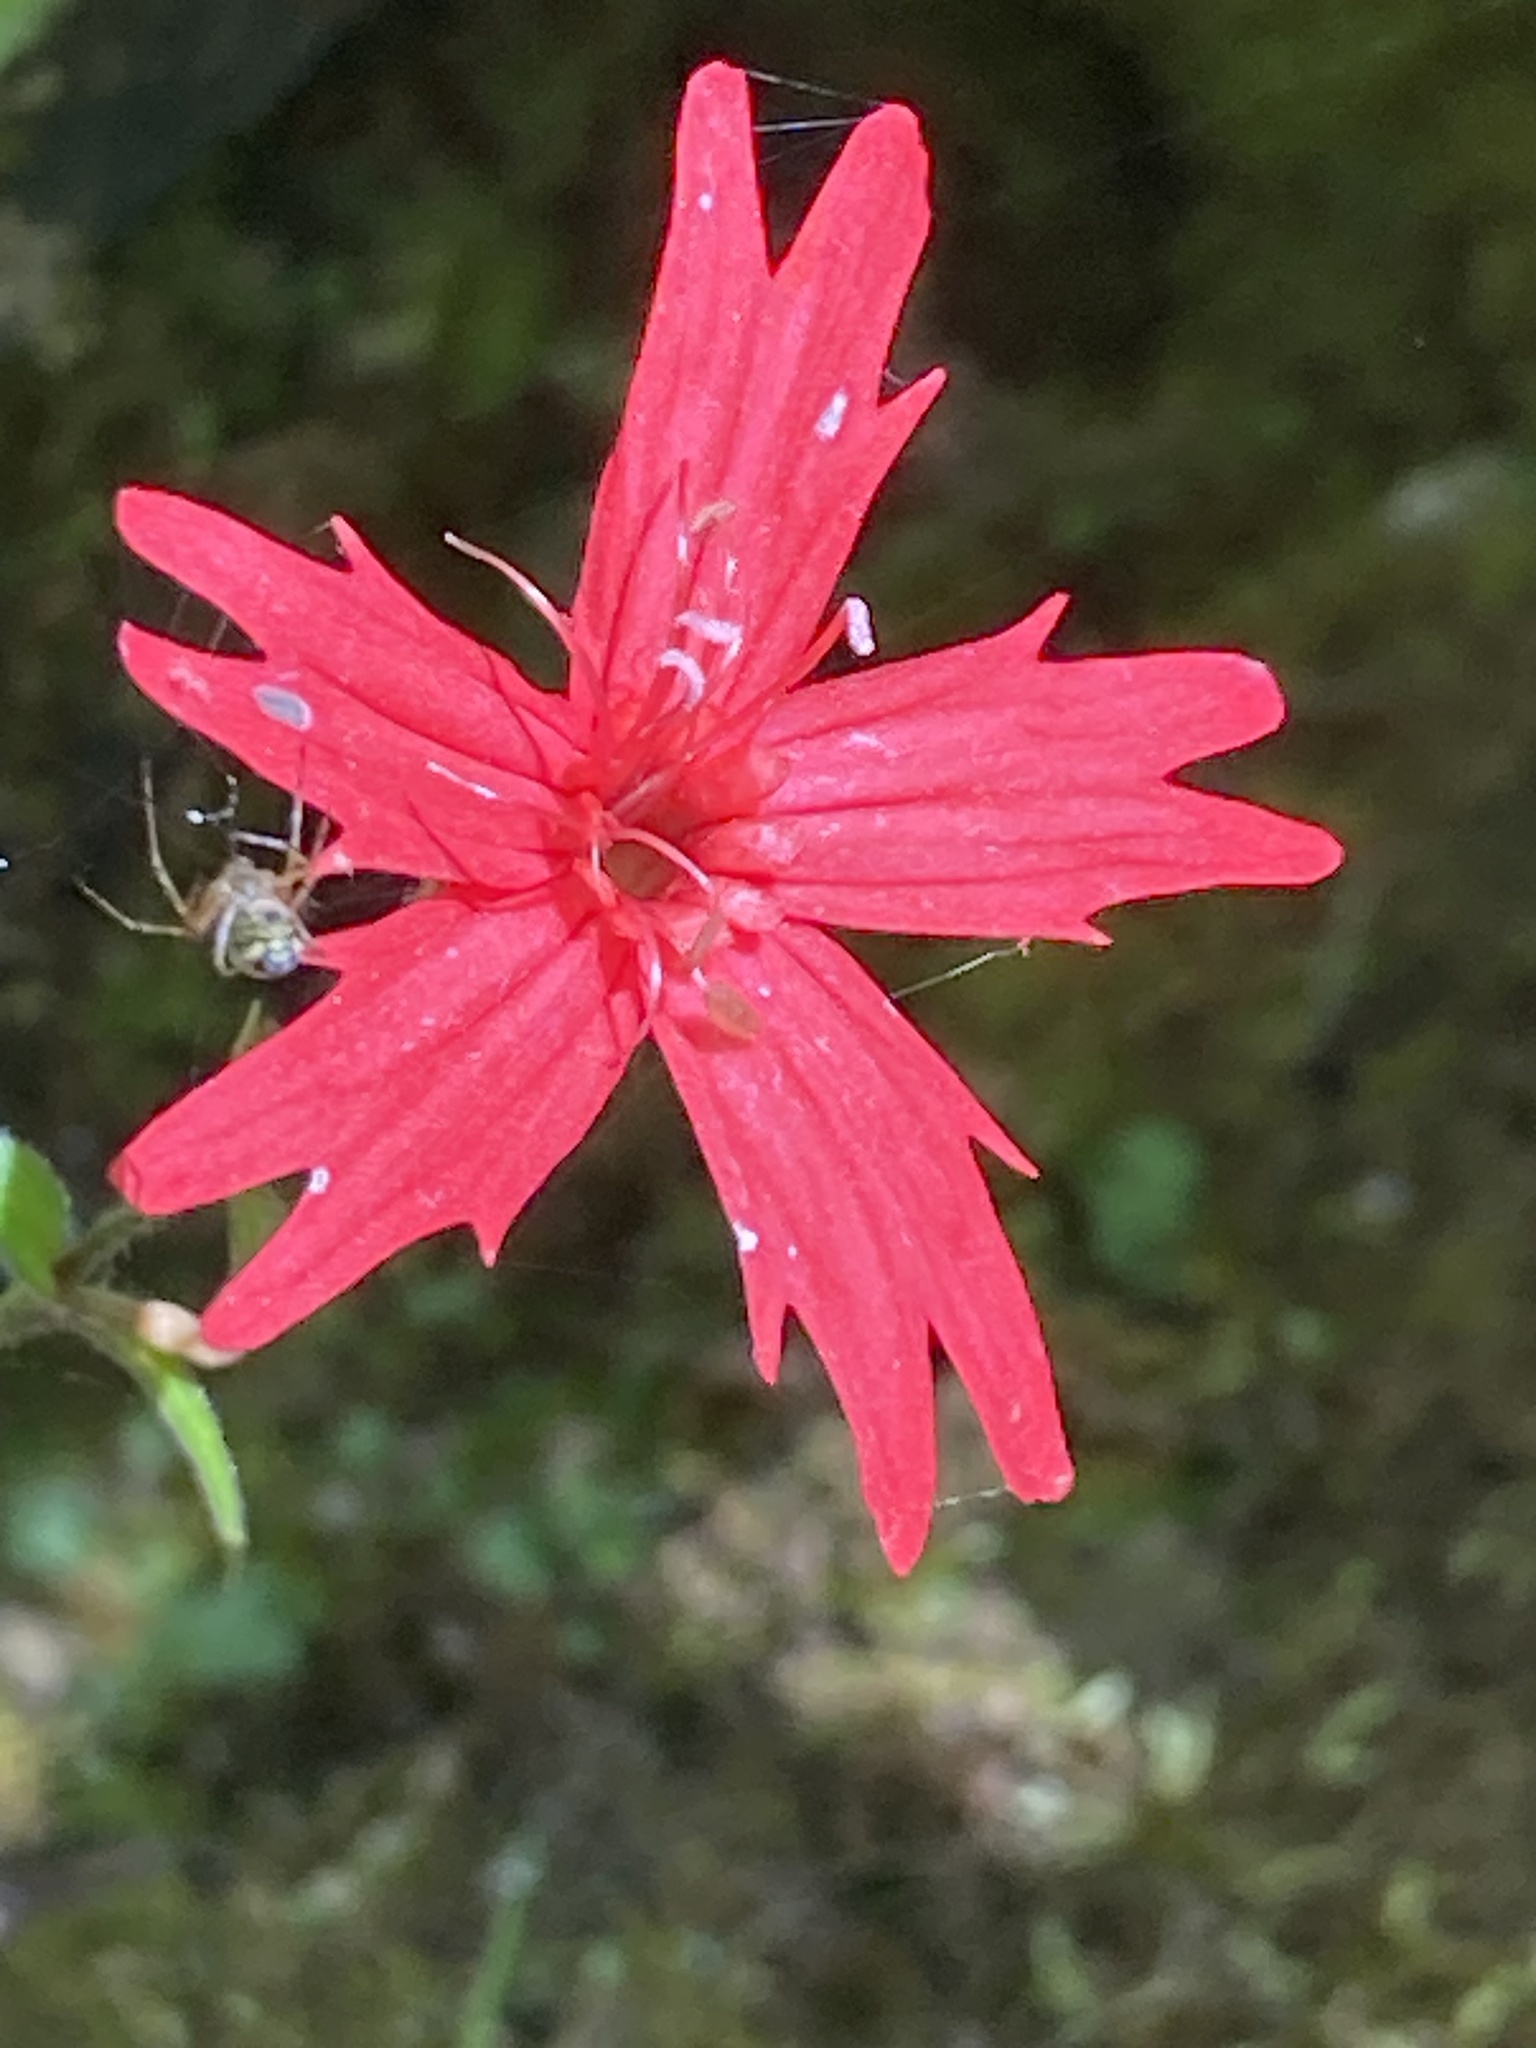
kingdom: Plantae
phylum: Tracheophyta
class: Magnoliopsida
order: Caryophyllales
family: Caryophyllaceae
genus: Silene
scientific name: Silene virginica
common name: Fire-pink
